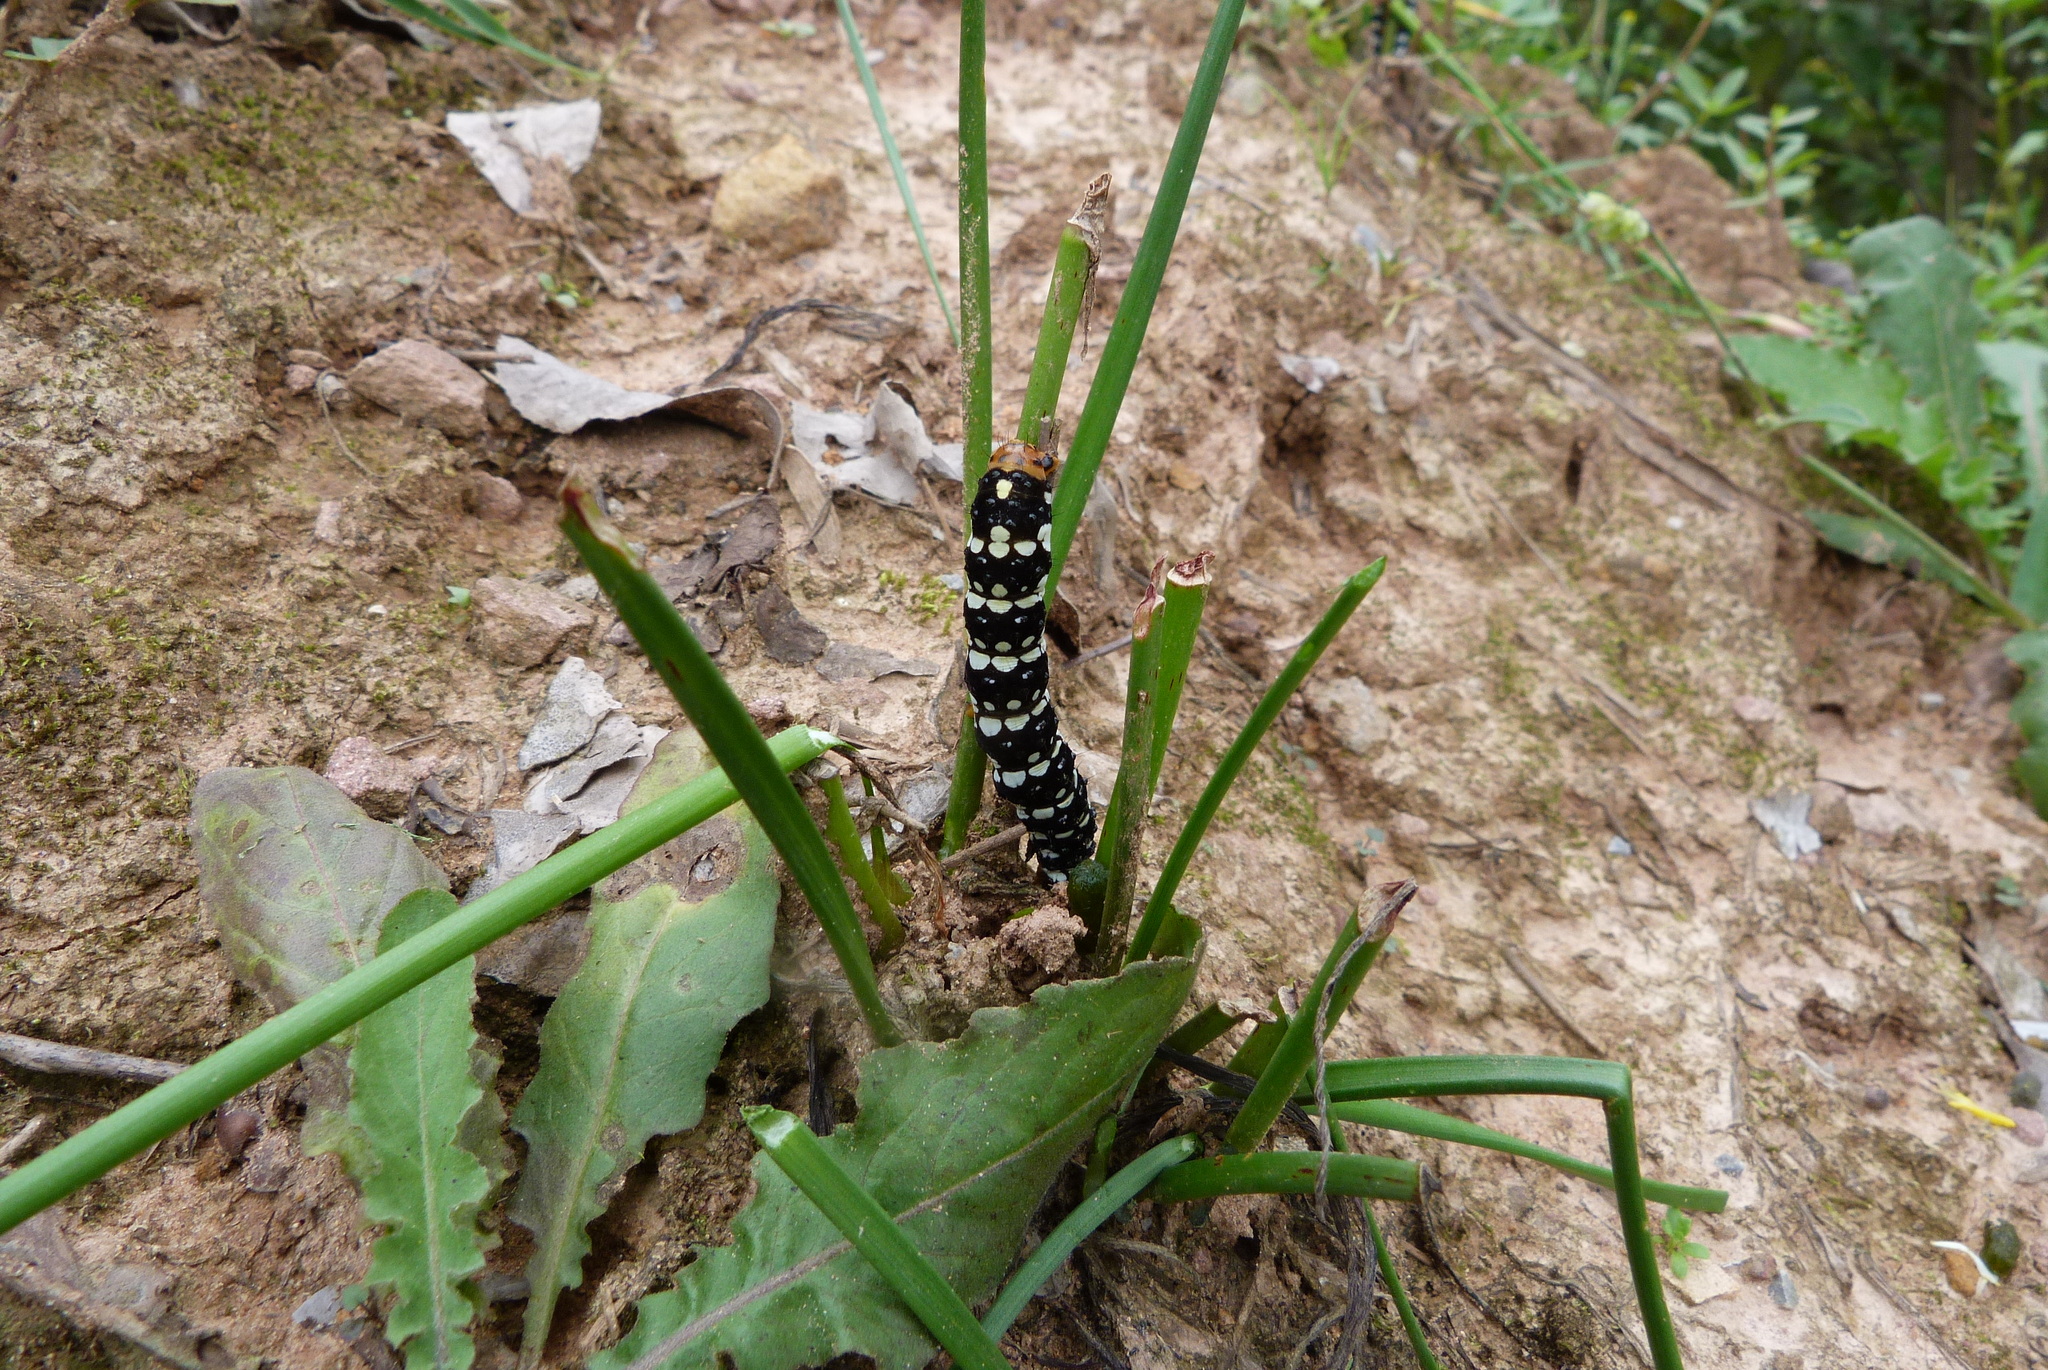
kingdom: Animalia
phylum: Arthropoda
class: Insecta
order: Lepidoptera
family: Noctuidae
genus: Brithys
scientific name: Brithys crini
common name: Kew arches
